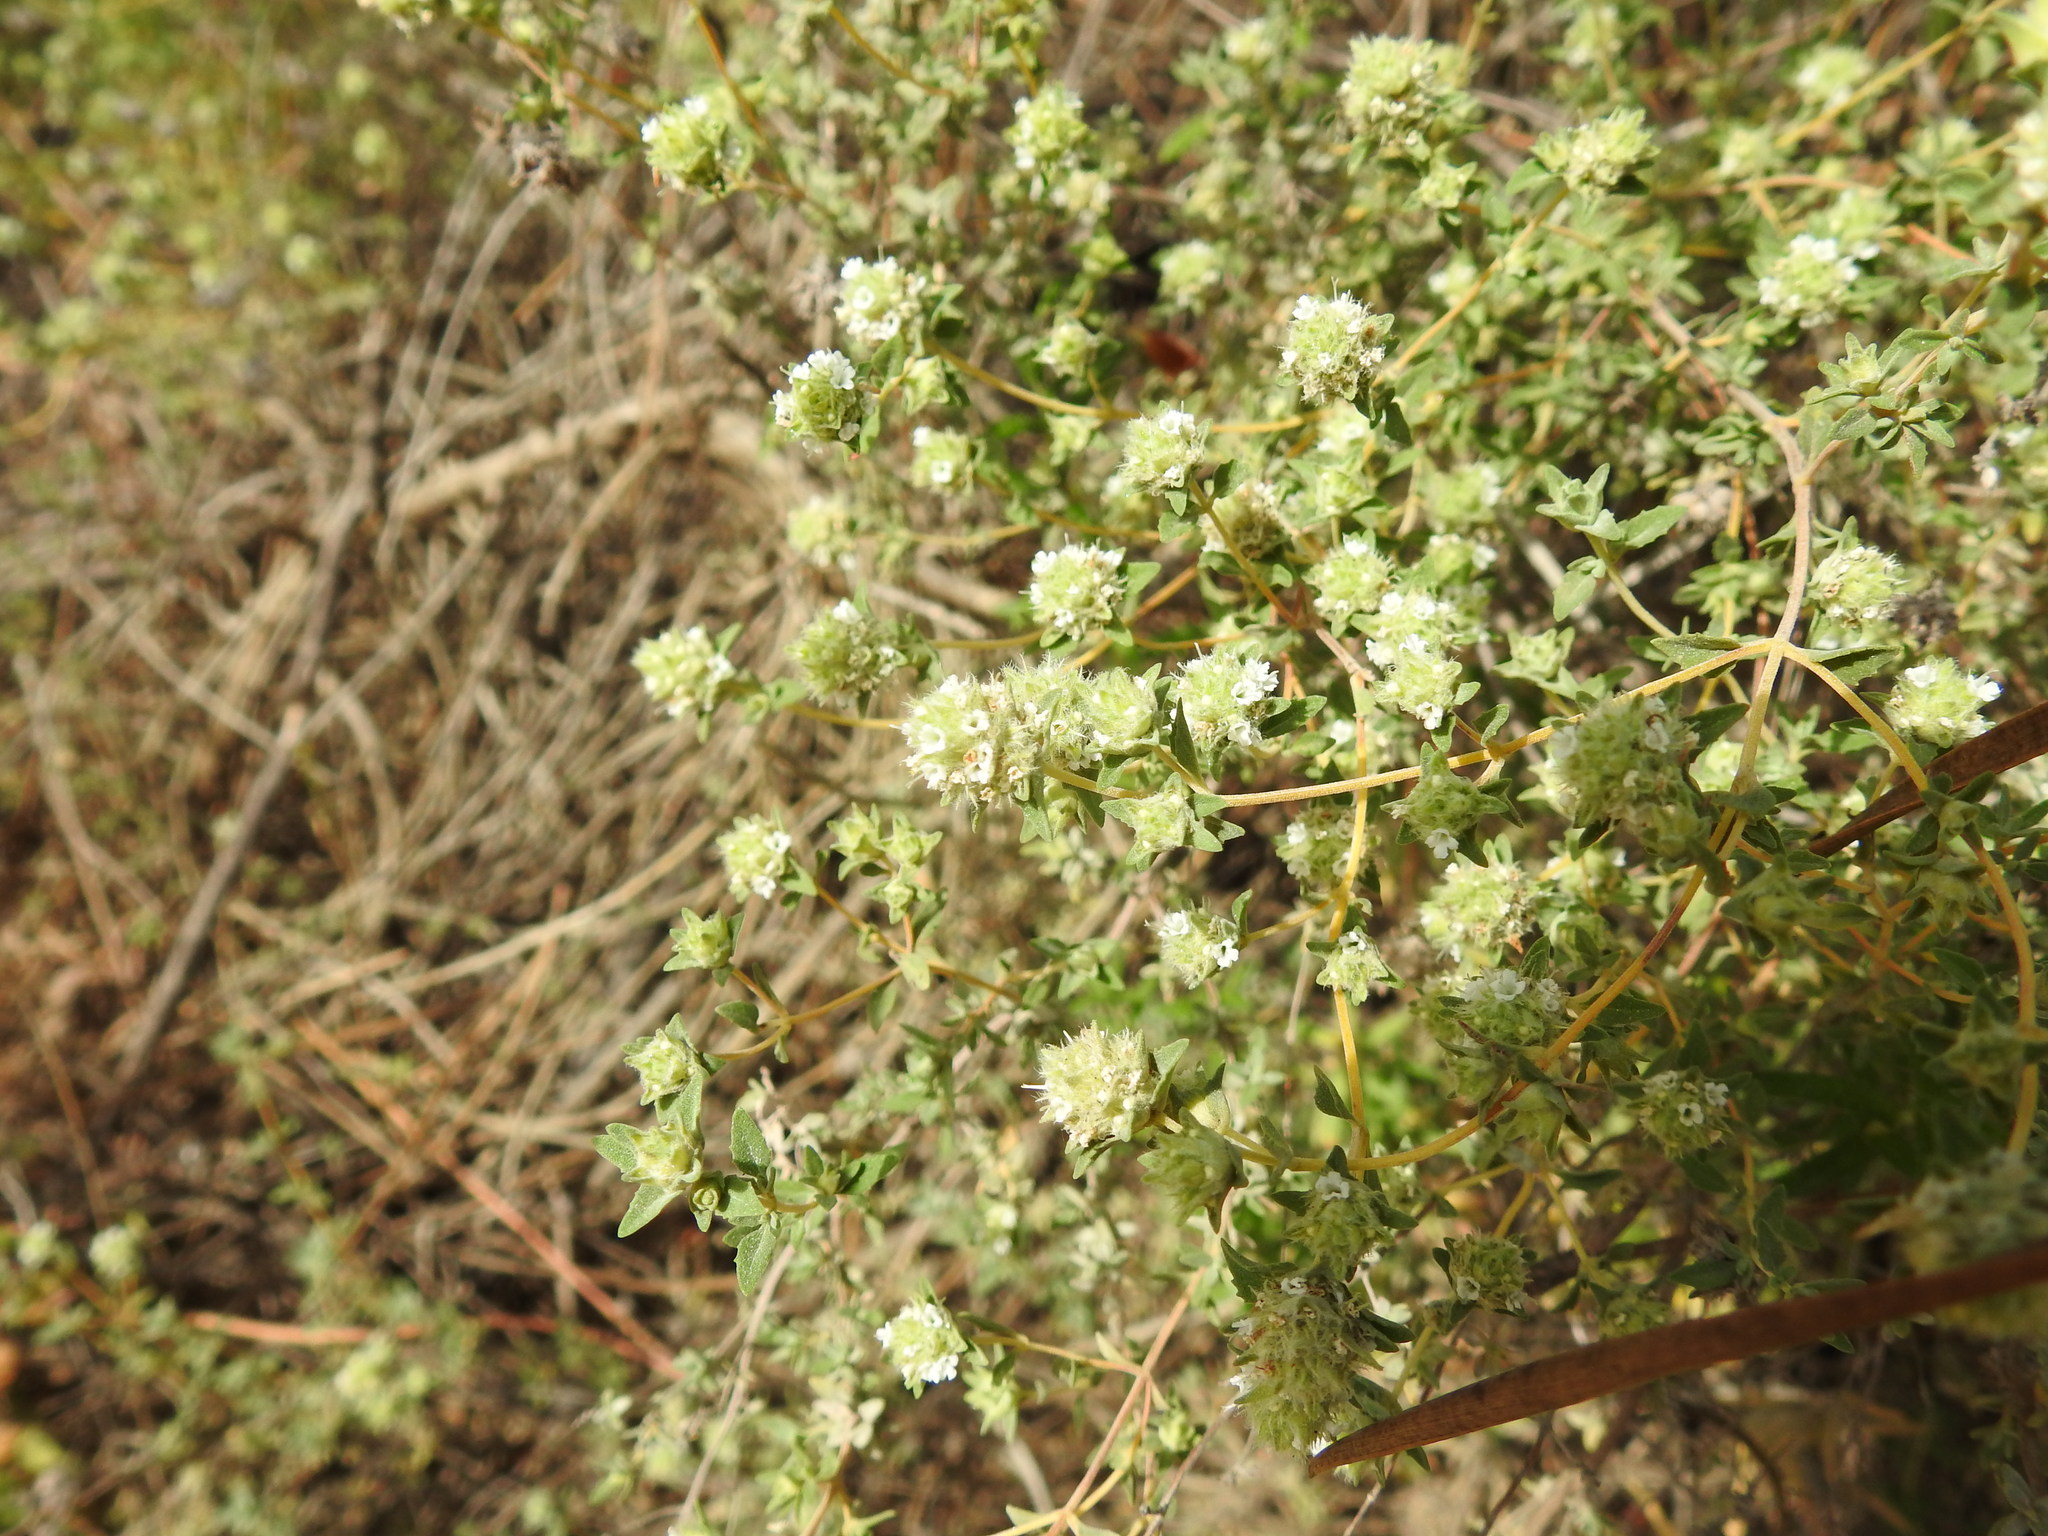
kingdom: Plantae
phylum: Tracheophyta
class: Magnoliopsida
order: Lamiales
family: Lamiaceae
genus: Thymus
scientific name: Thymus albicans
